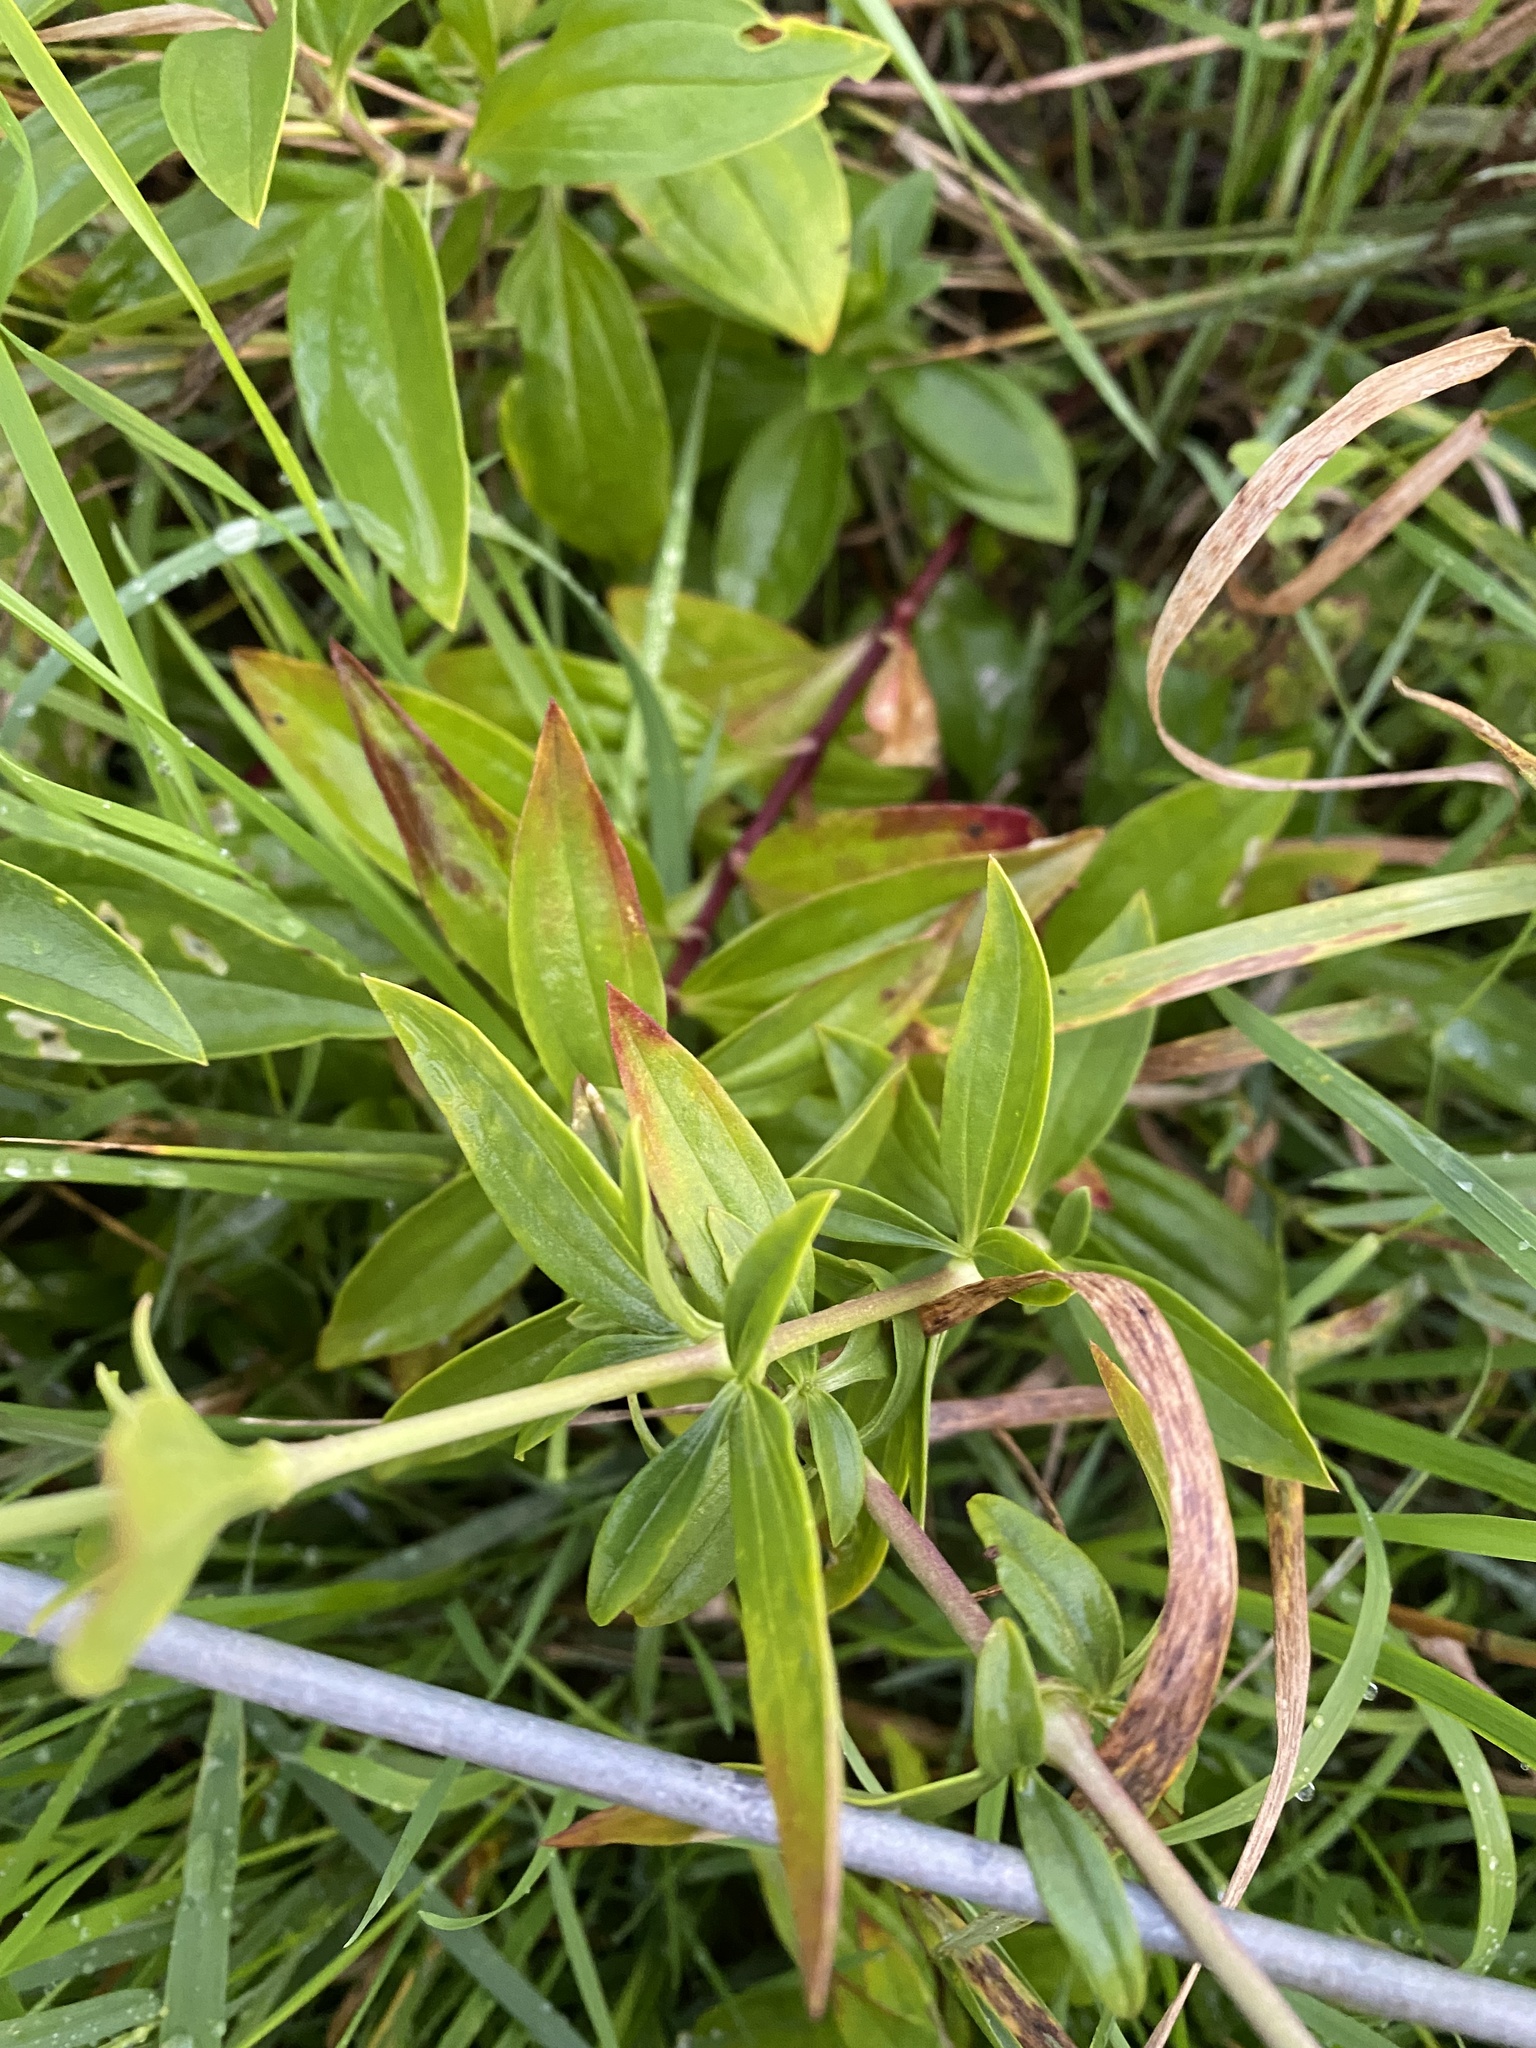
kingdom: Plantae
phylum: Tracheophyta
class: Magnoliopsida
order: Caryophyllales
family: Caryophyllaceae
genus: Saponaria
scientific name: Saponaria officinalis
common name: Soapwort
